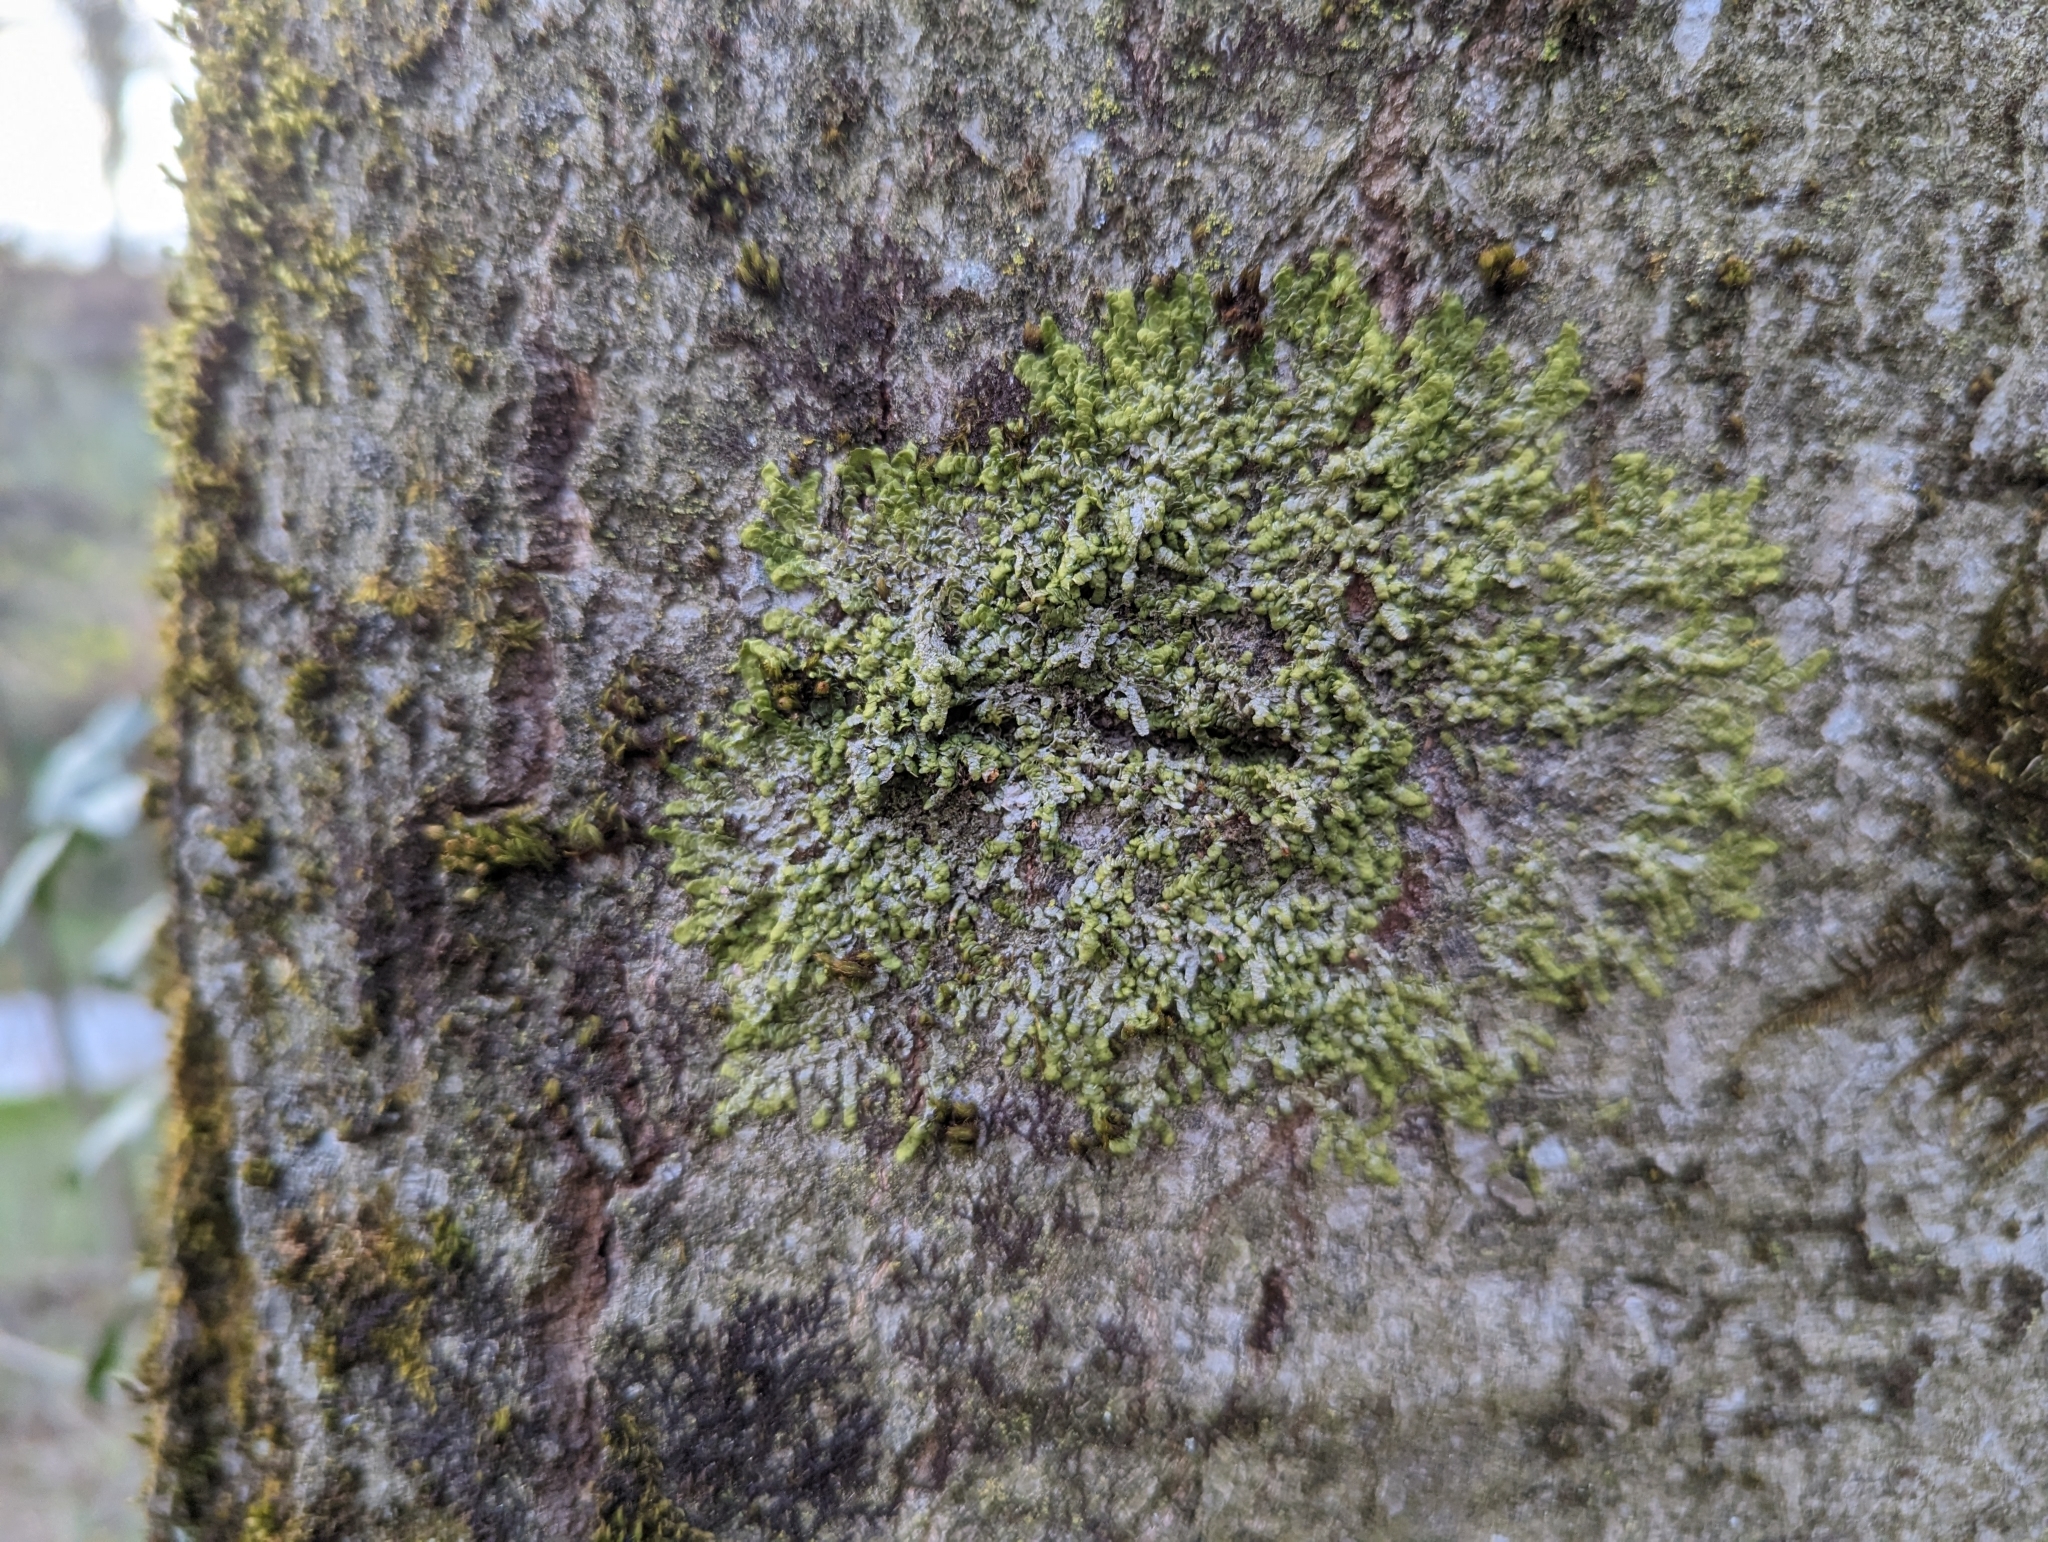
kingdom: Plantae
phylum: Marchantiophyta
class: Jungermanniopsida
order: Porellales
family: Radulaceae
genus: Radula
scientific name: Radula complanata
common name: Flat-leaved scalewort
